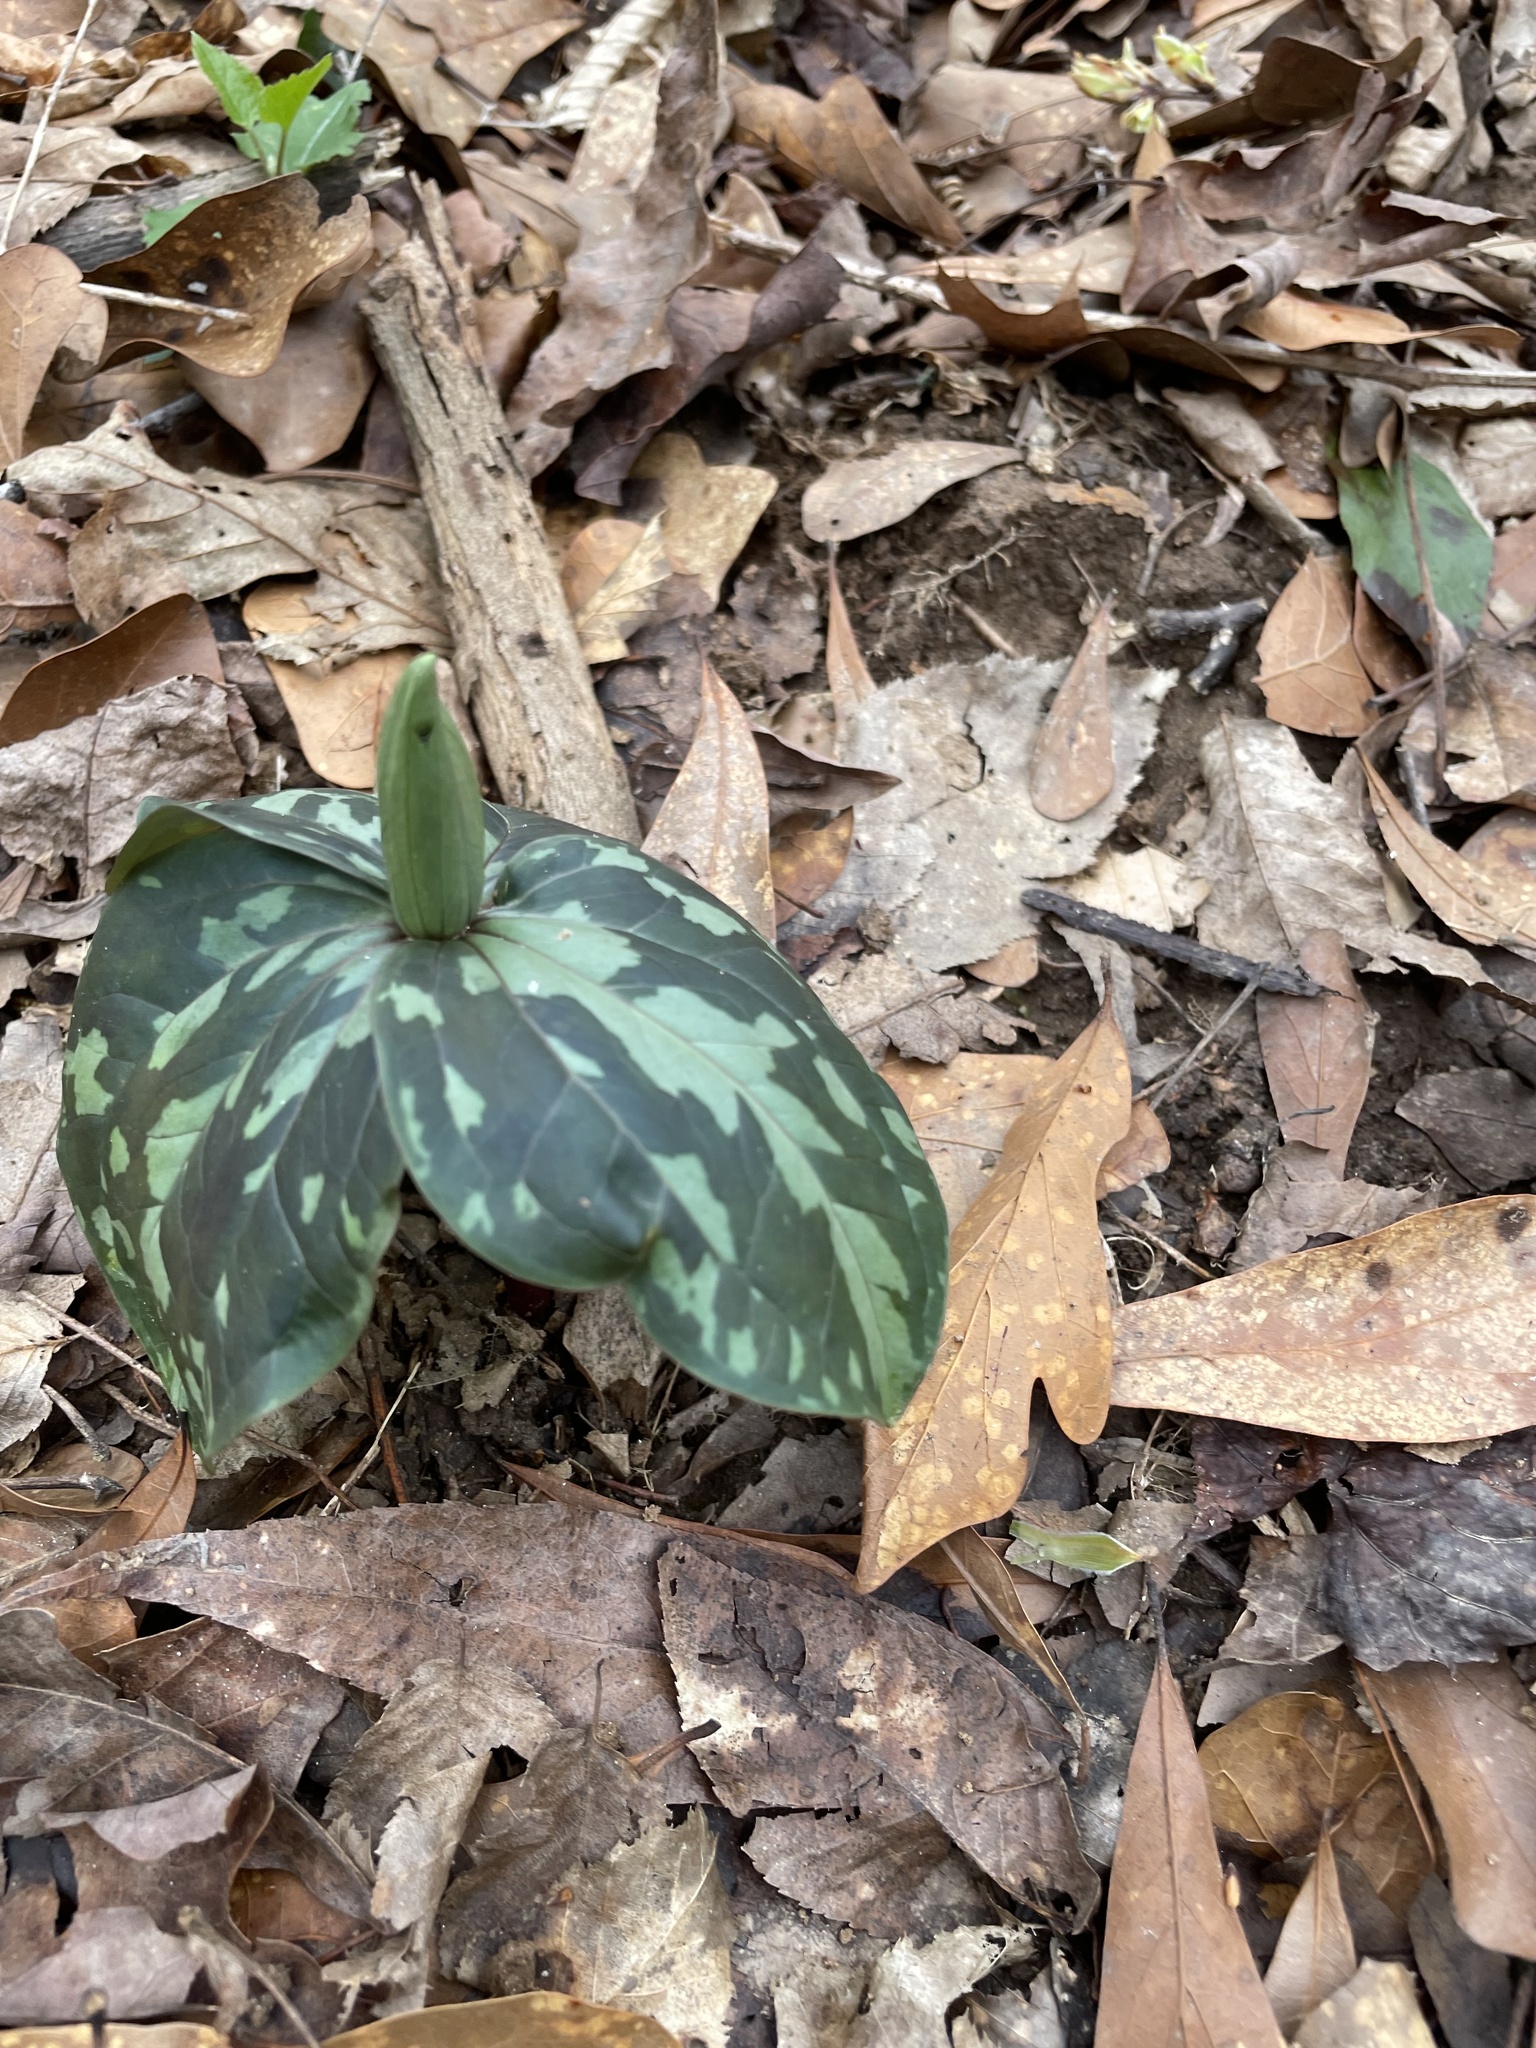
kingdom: Plantae
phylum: Tracheophyta
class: Liliopsida
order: Liliales
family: Melanthiaceae
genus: Trillium
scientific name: Trillium cuneatum
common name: Cuneate trillium
